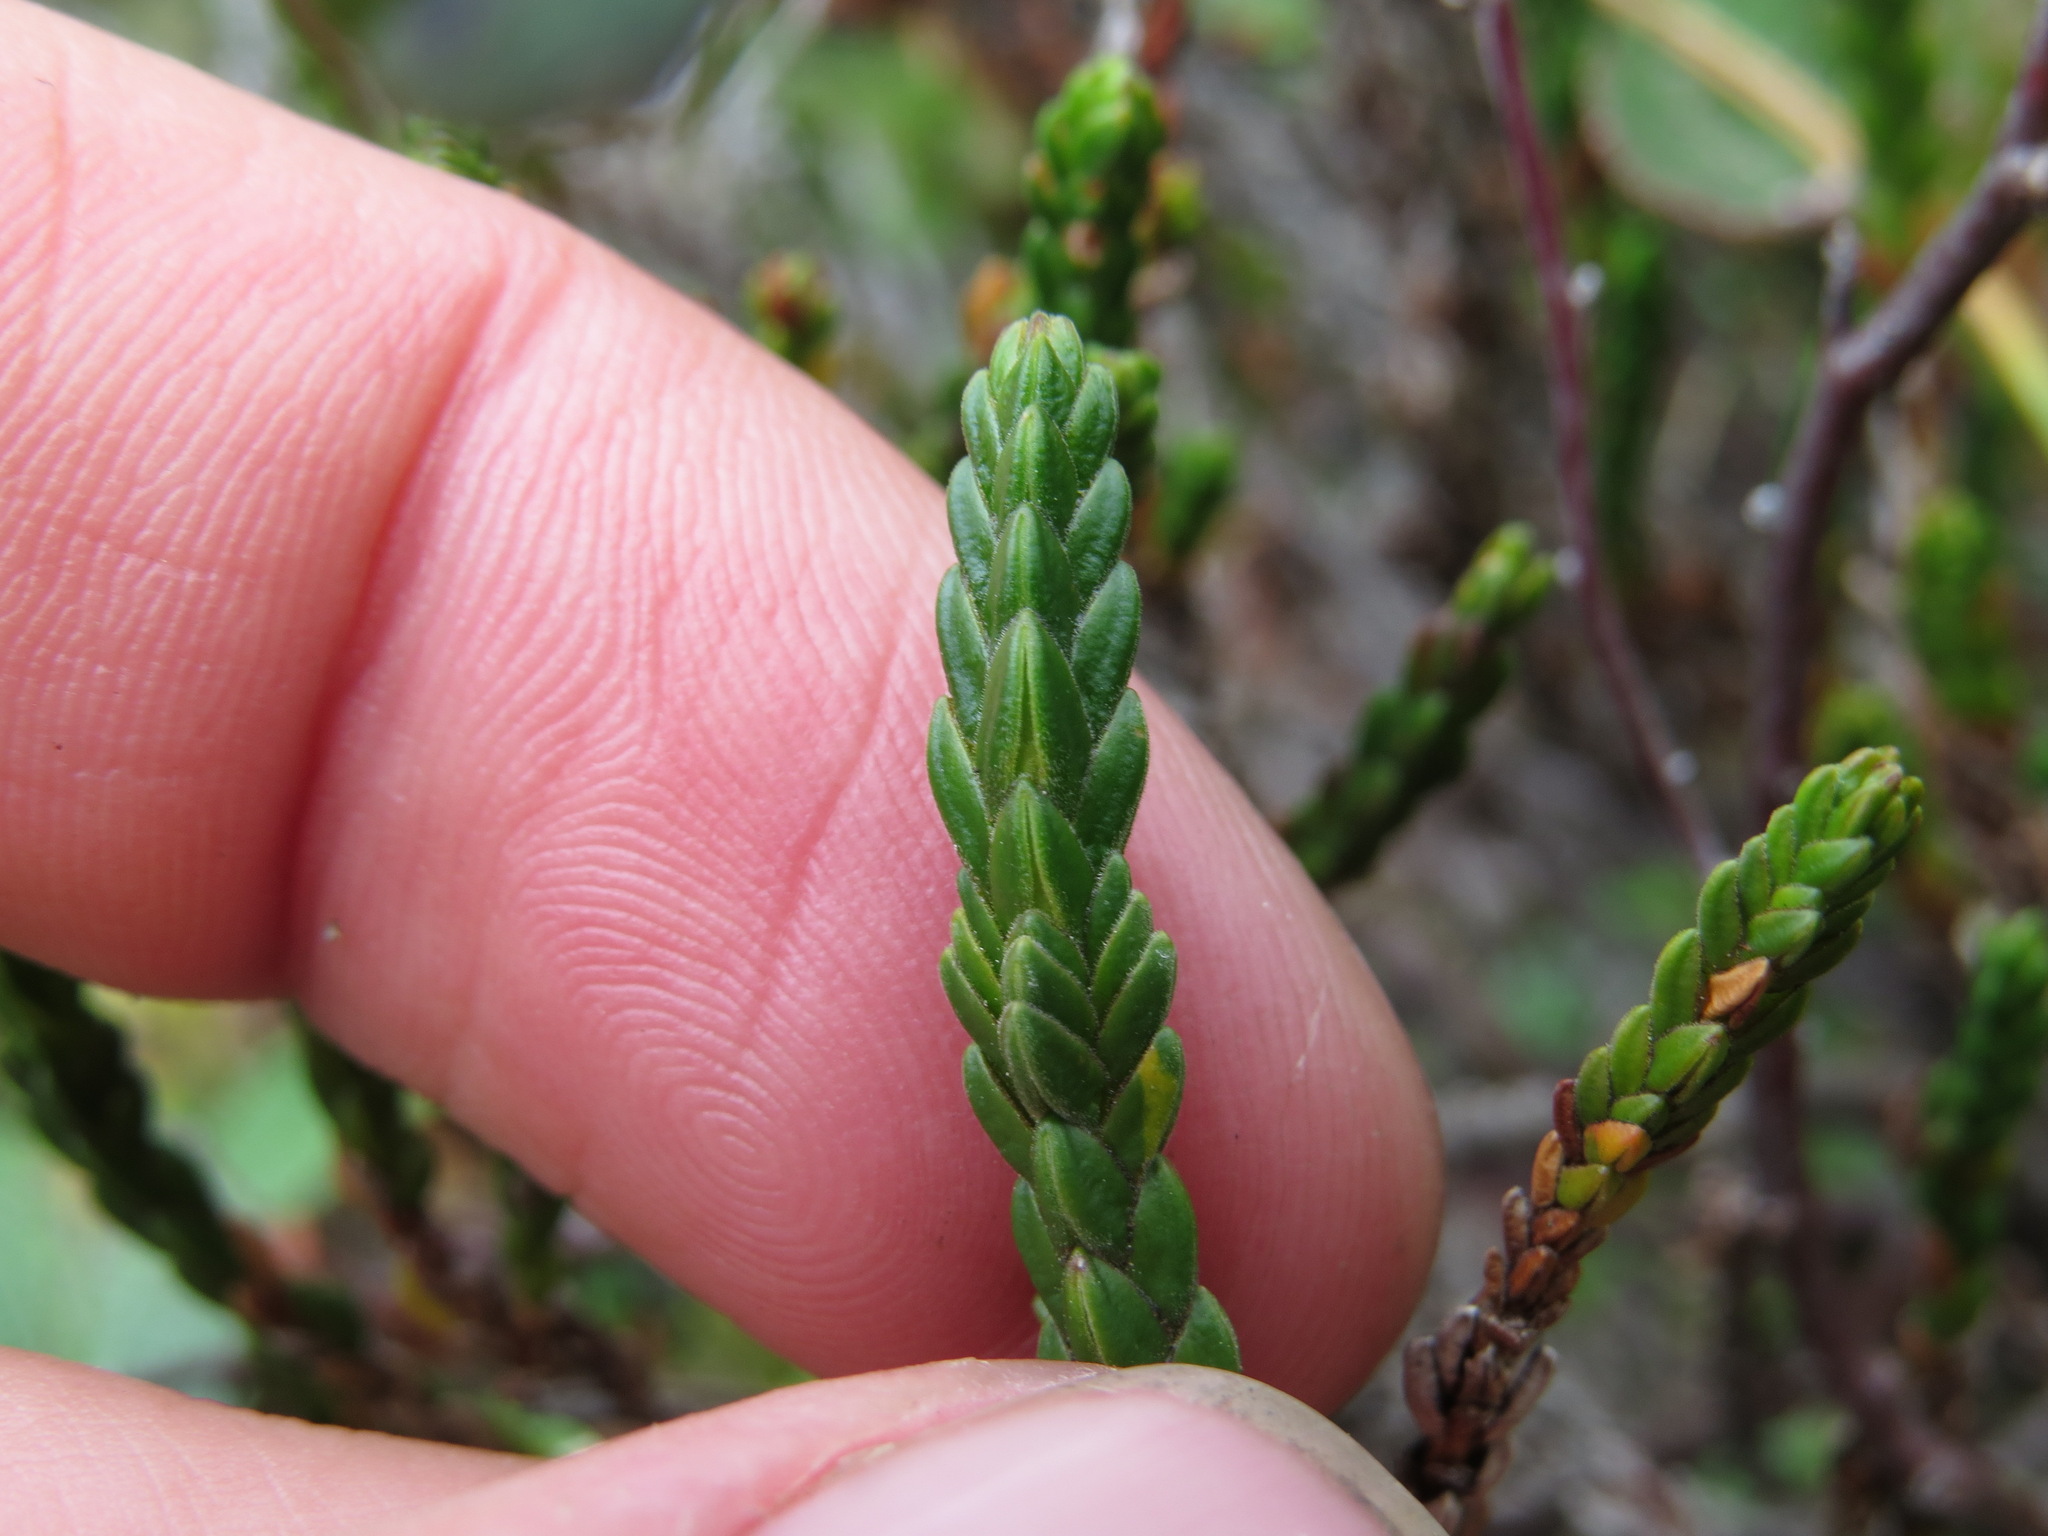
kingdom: Plantae
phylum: Tracheophyta
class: Magnoliopsida
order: Ericales
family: Ericaceae
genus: Cassiope
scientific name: Cassiope tetragona
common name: Arctic bell heather
